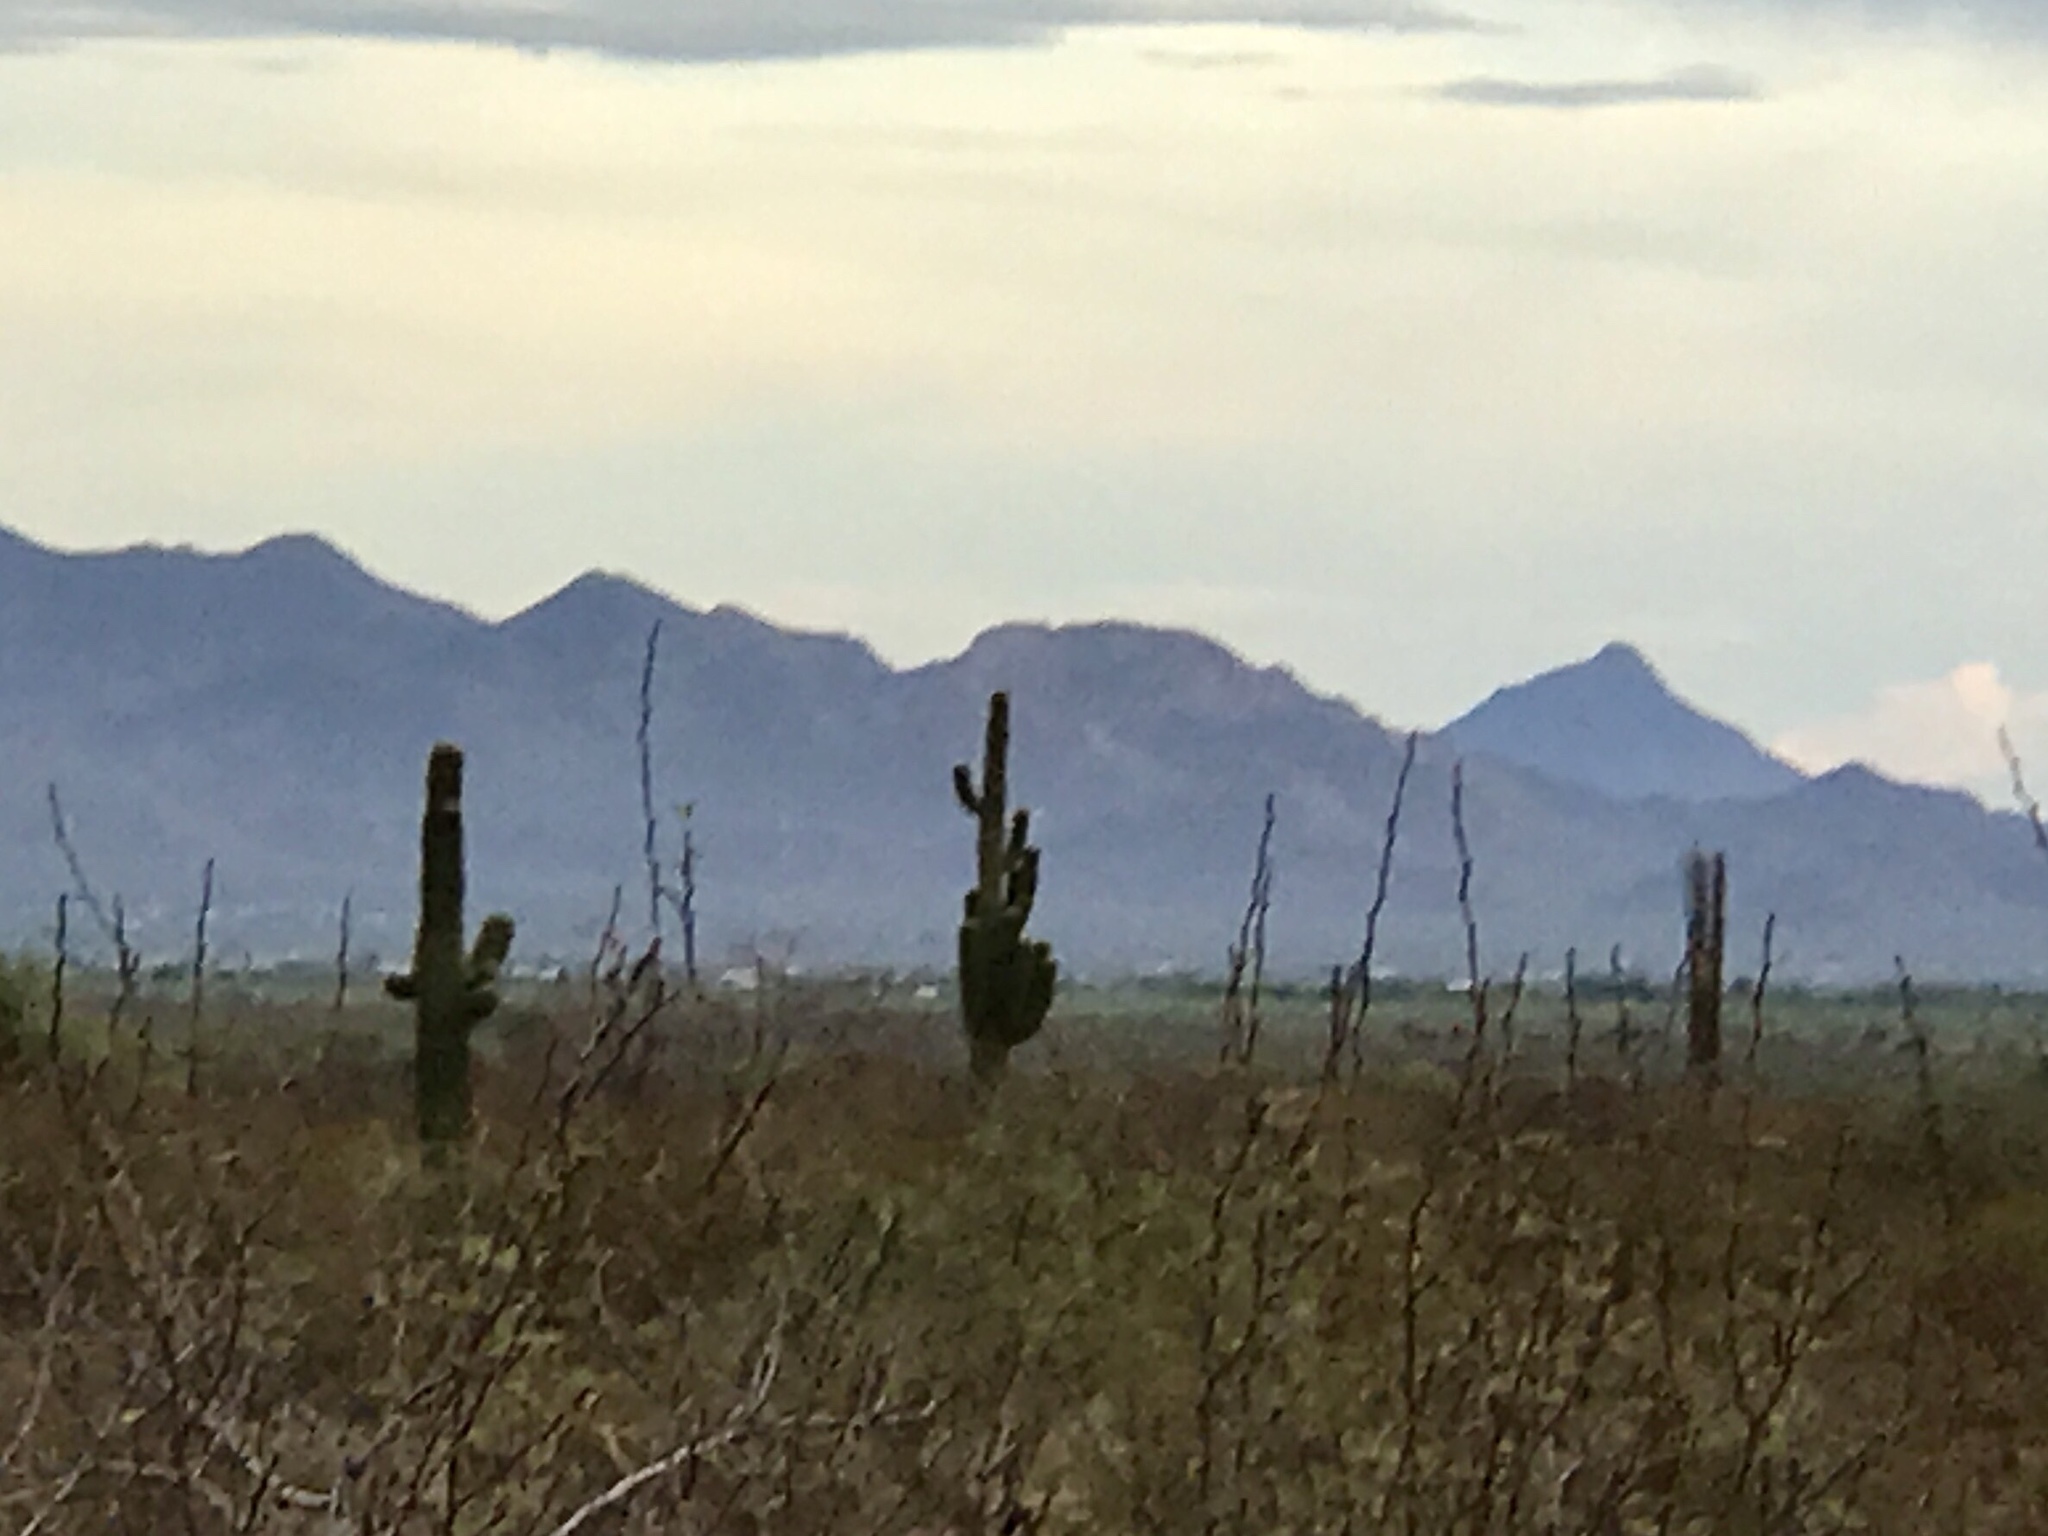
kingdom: Plantae
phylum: Tracheophyta
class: Magnoliopsida
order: Caryophyllales
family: Cactaceae
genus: Carnegiea
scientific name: Carnegiea gigantea
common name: Saguaro
